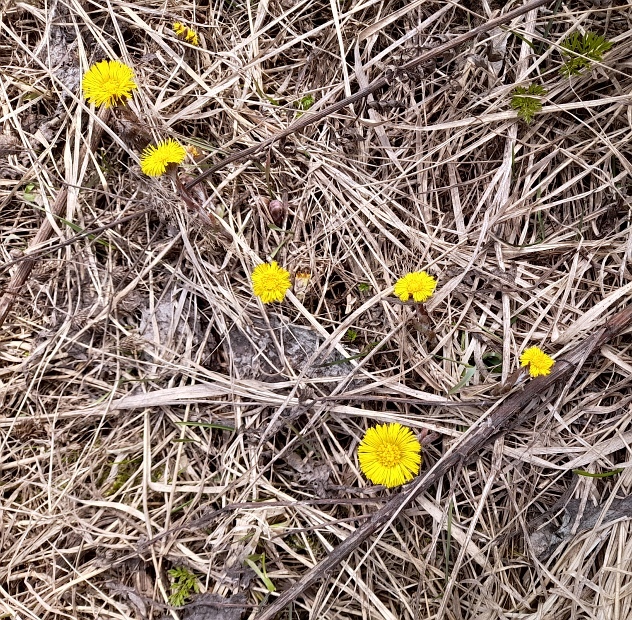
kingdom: Plantae
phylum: Tracheophyta
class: Magnoliopsida
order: Asterales
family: Asteraceae
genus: Tussilago
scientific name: Tussilago farfara
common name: Coltsfoot
